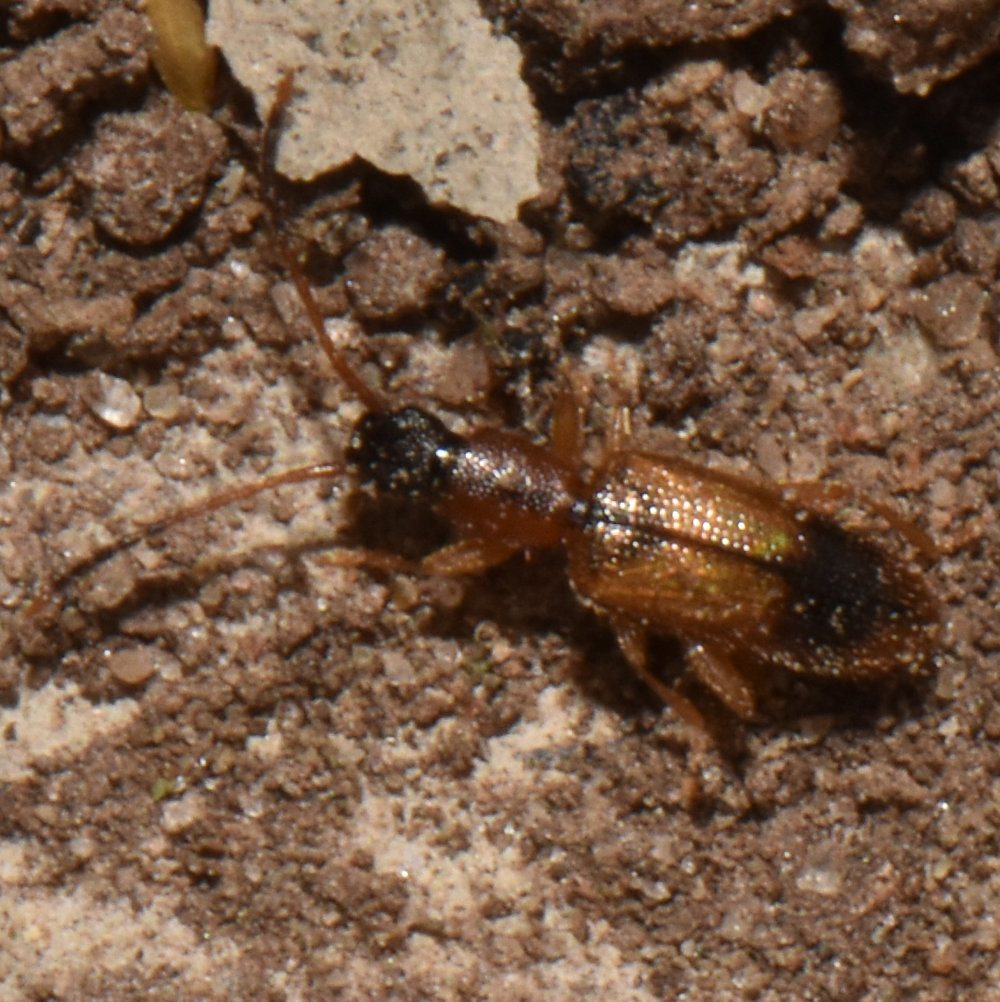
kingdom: Animalia
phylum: Arthropoda
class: Insecta
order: Coleoptera
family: Silvanidae
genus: Telephanus
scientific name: Telephanus velox
